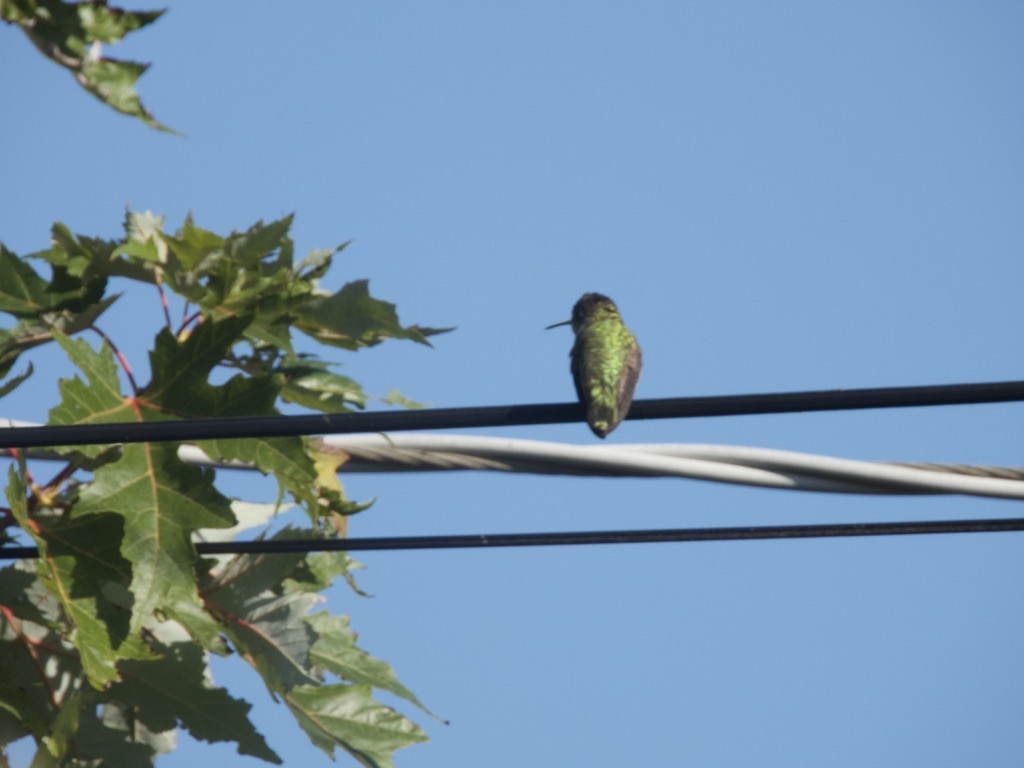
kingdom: Animalia
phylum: Chordata
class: Aves
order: Apodiformes
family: Trochilidae
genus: Calypte
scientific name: Calypte anna
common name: Anna's hummingbird
